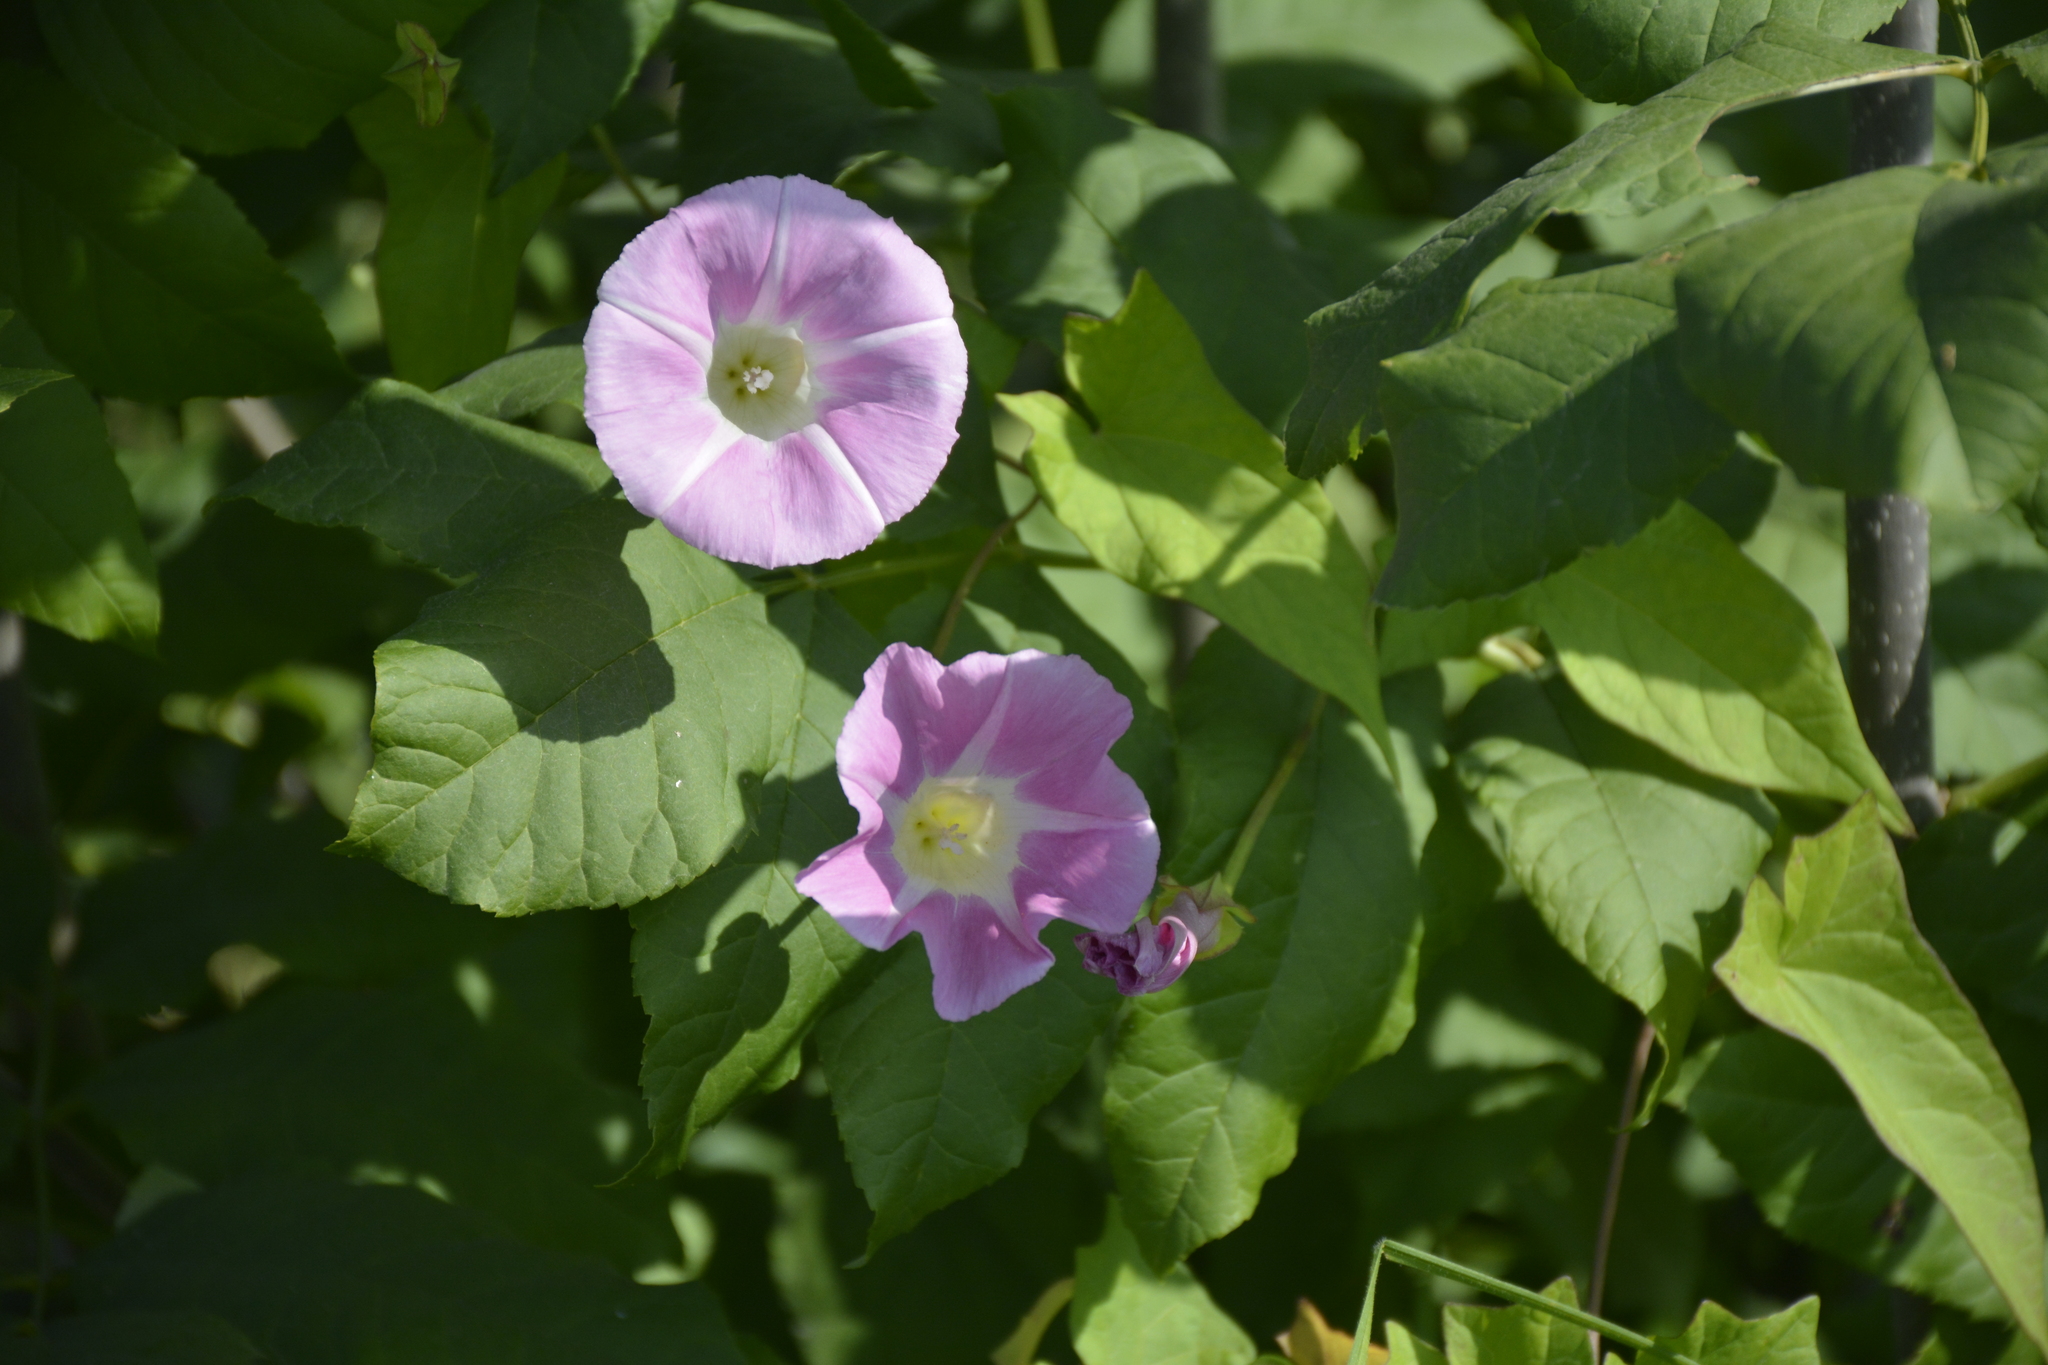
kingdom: Plantae
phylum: Tracheophyta
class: Magnoliopsida
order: Solanales
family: Convolvulaceae
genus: Calystegia
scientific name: Calystegia sepium
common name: Hedge bindweed
